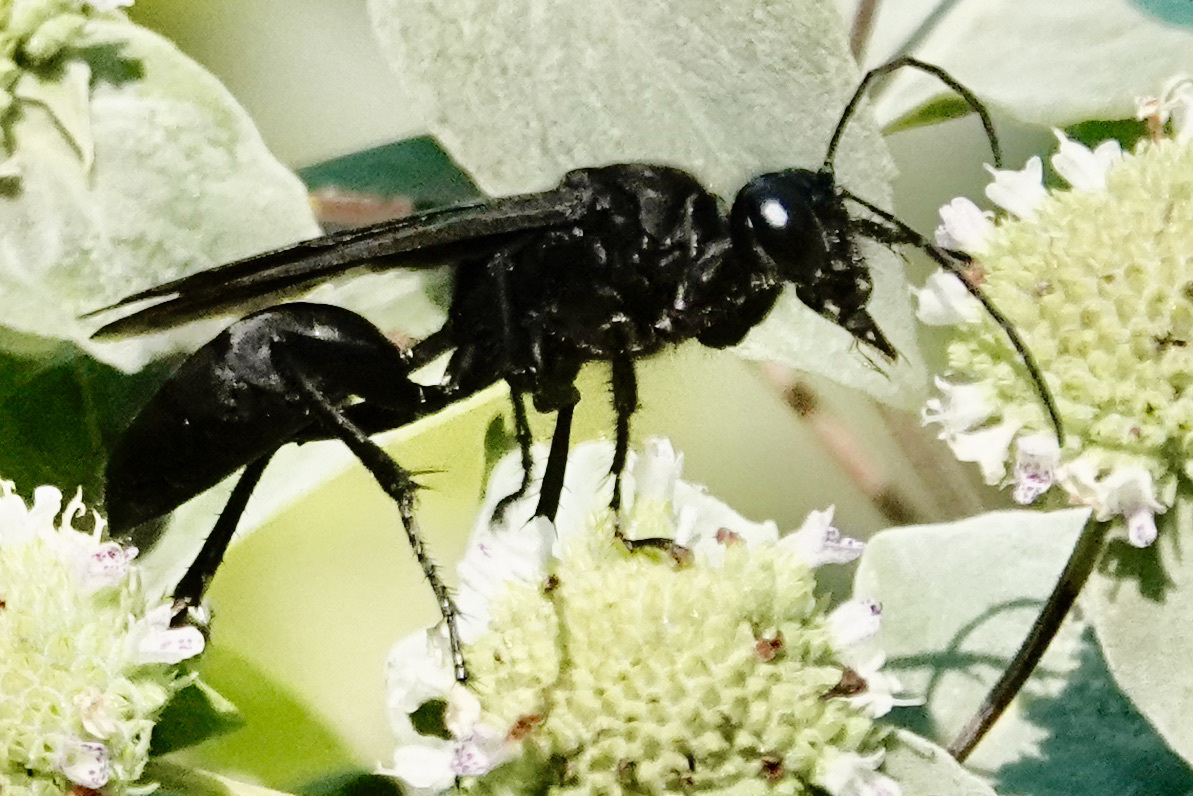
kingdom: Animalia
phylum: Arthropoda
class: Insecta
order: Hymenoptera
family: Sphecidae
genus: Sphex
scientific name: Sphex pensylvanicus
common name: Great black digger wasp
